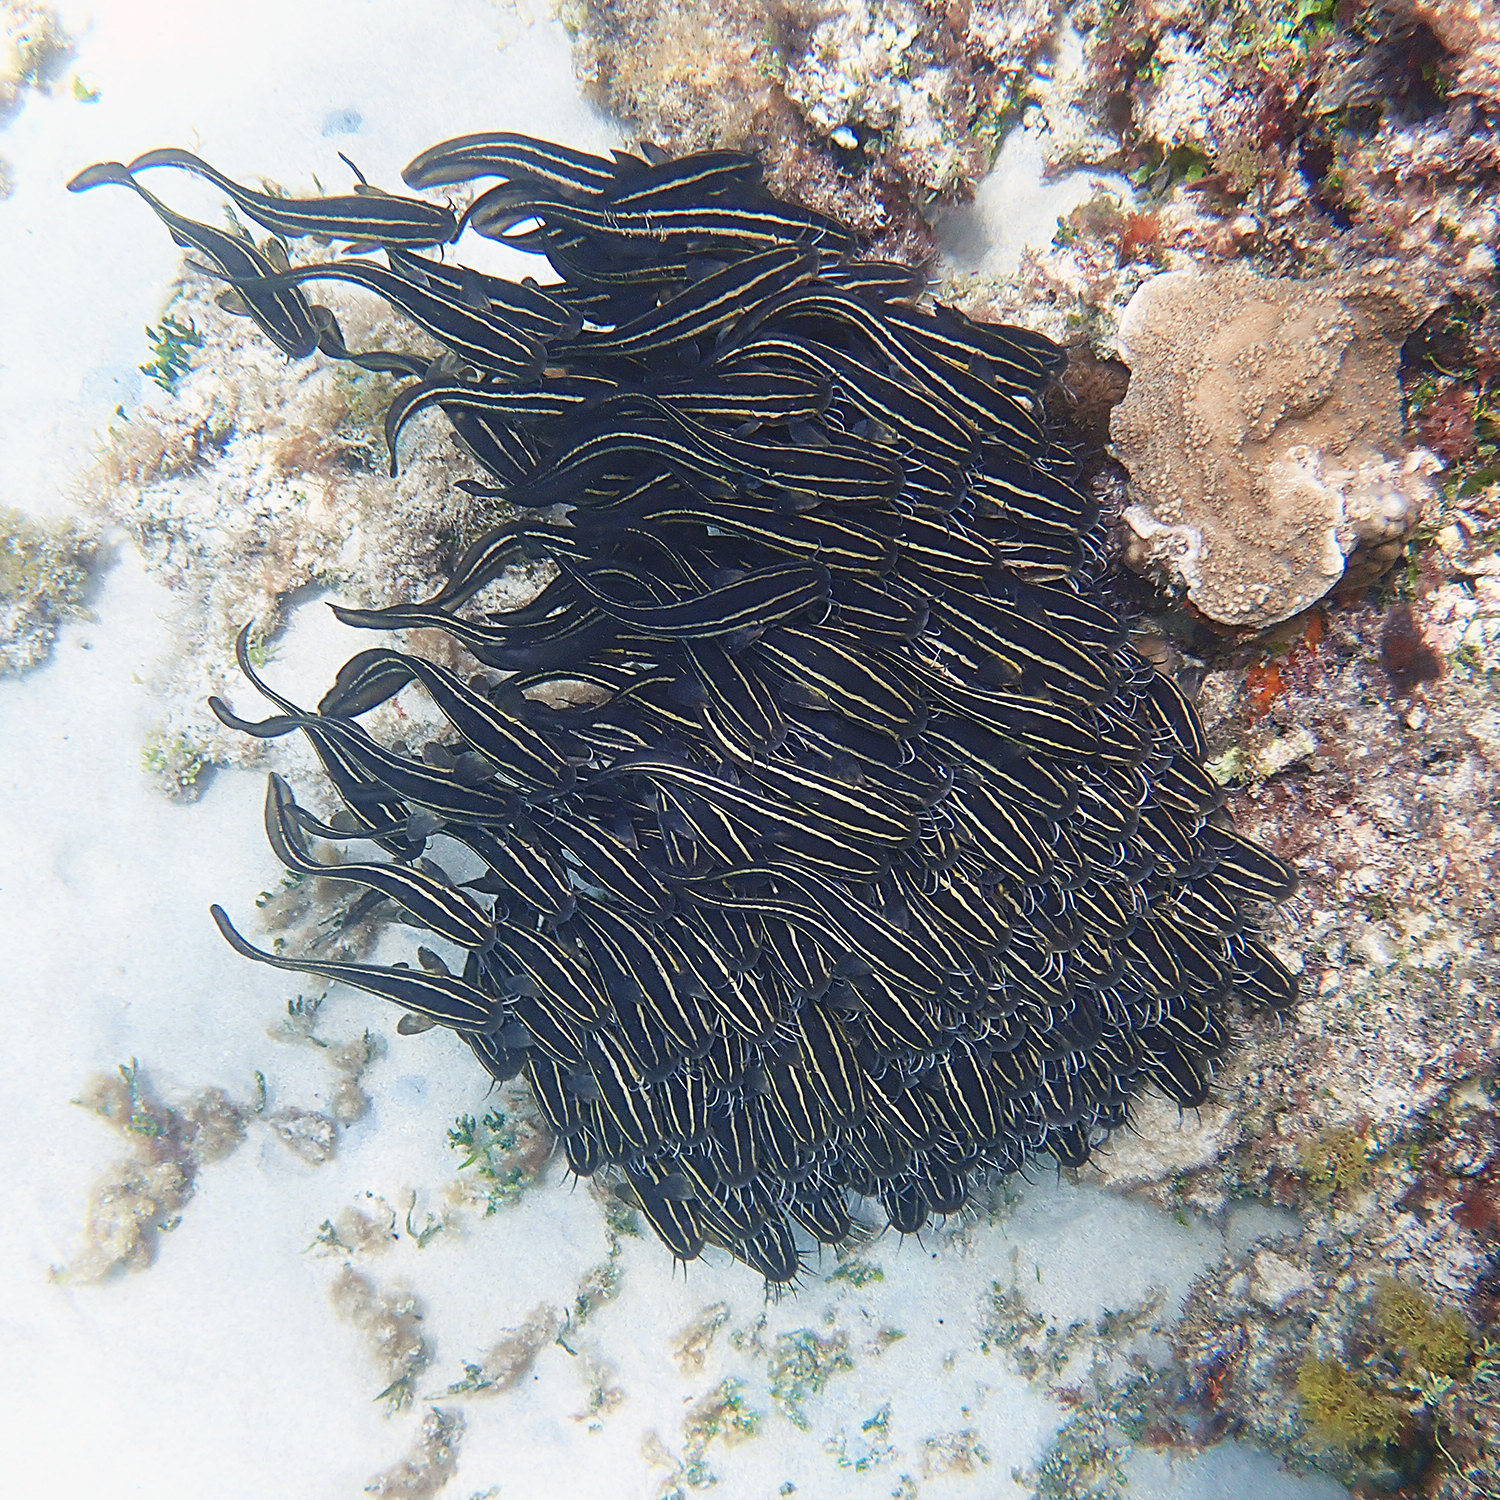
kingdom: Animalia
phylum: Chordata
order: Siluriformes
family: Plotosidae
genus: Plotosus
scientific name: Plotosus lineatus
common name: Striped eel catfish
